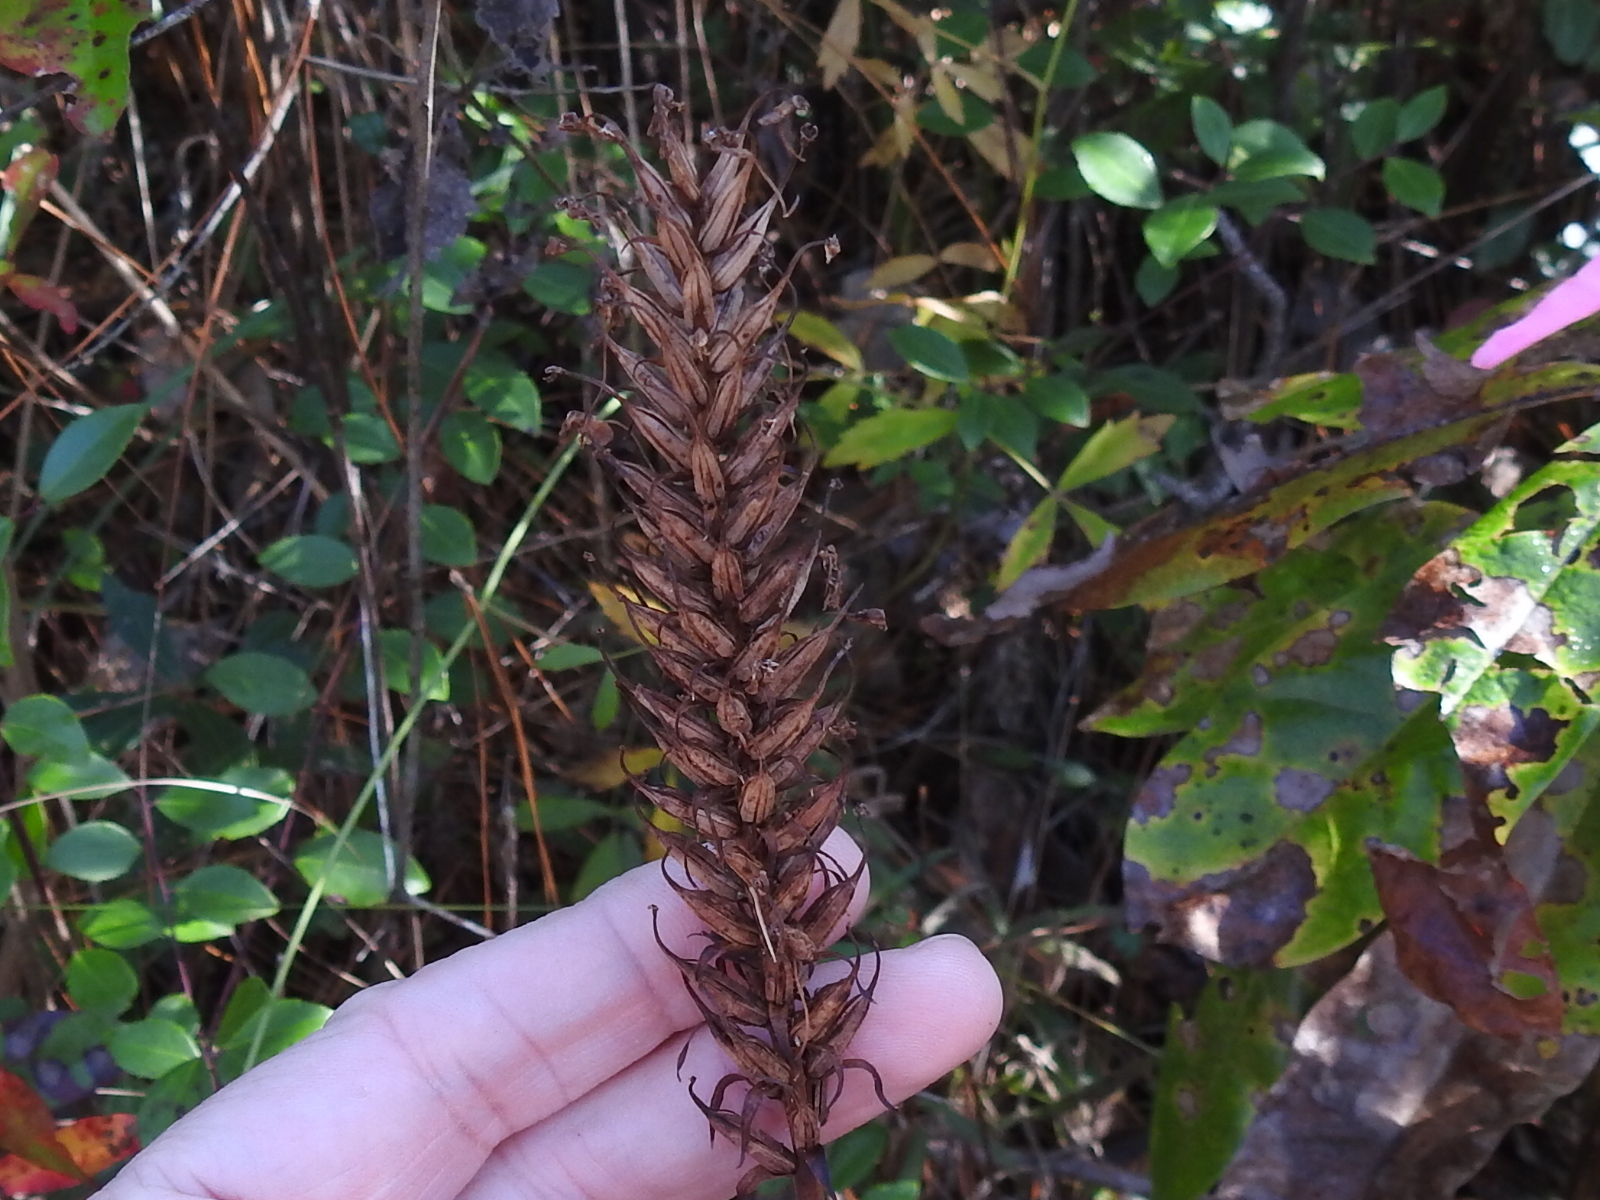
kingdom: Plantae
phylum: Tracheophyta
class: Liliopsida
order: Asparagales
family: Orchidaceae
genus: Platanthera
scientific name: Platanthera chapmanii
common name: Chapman’s fringed orchid
